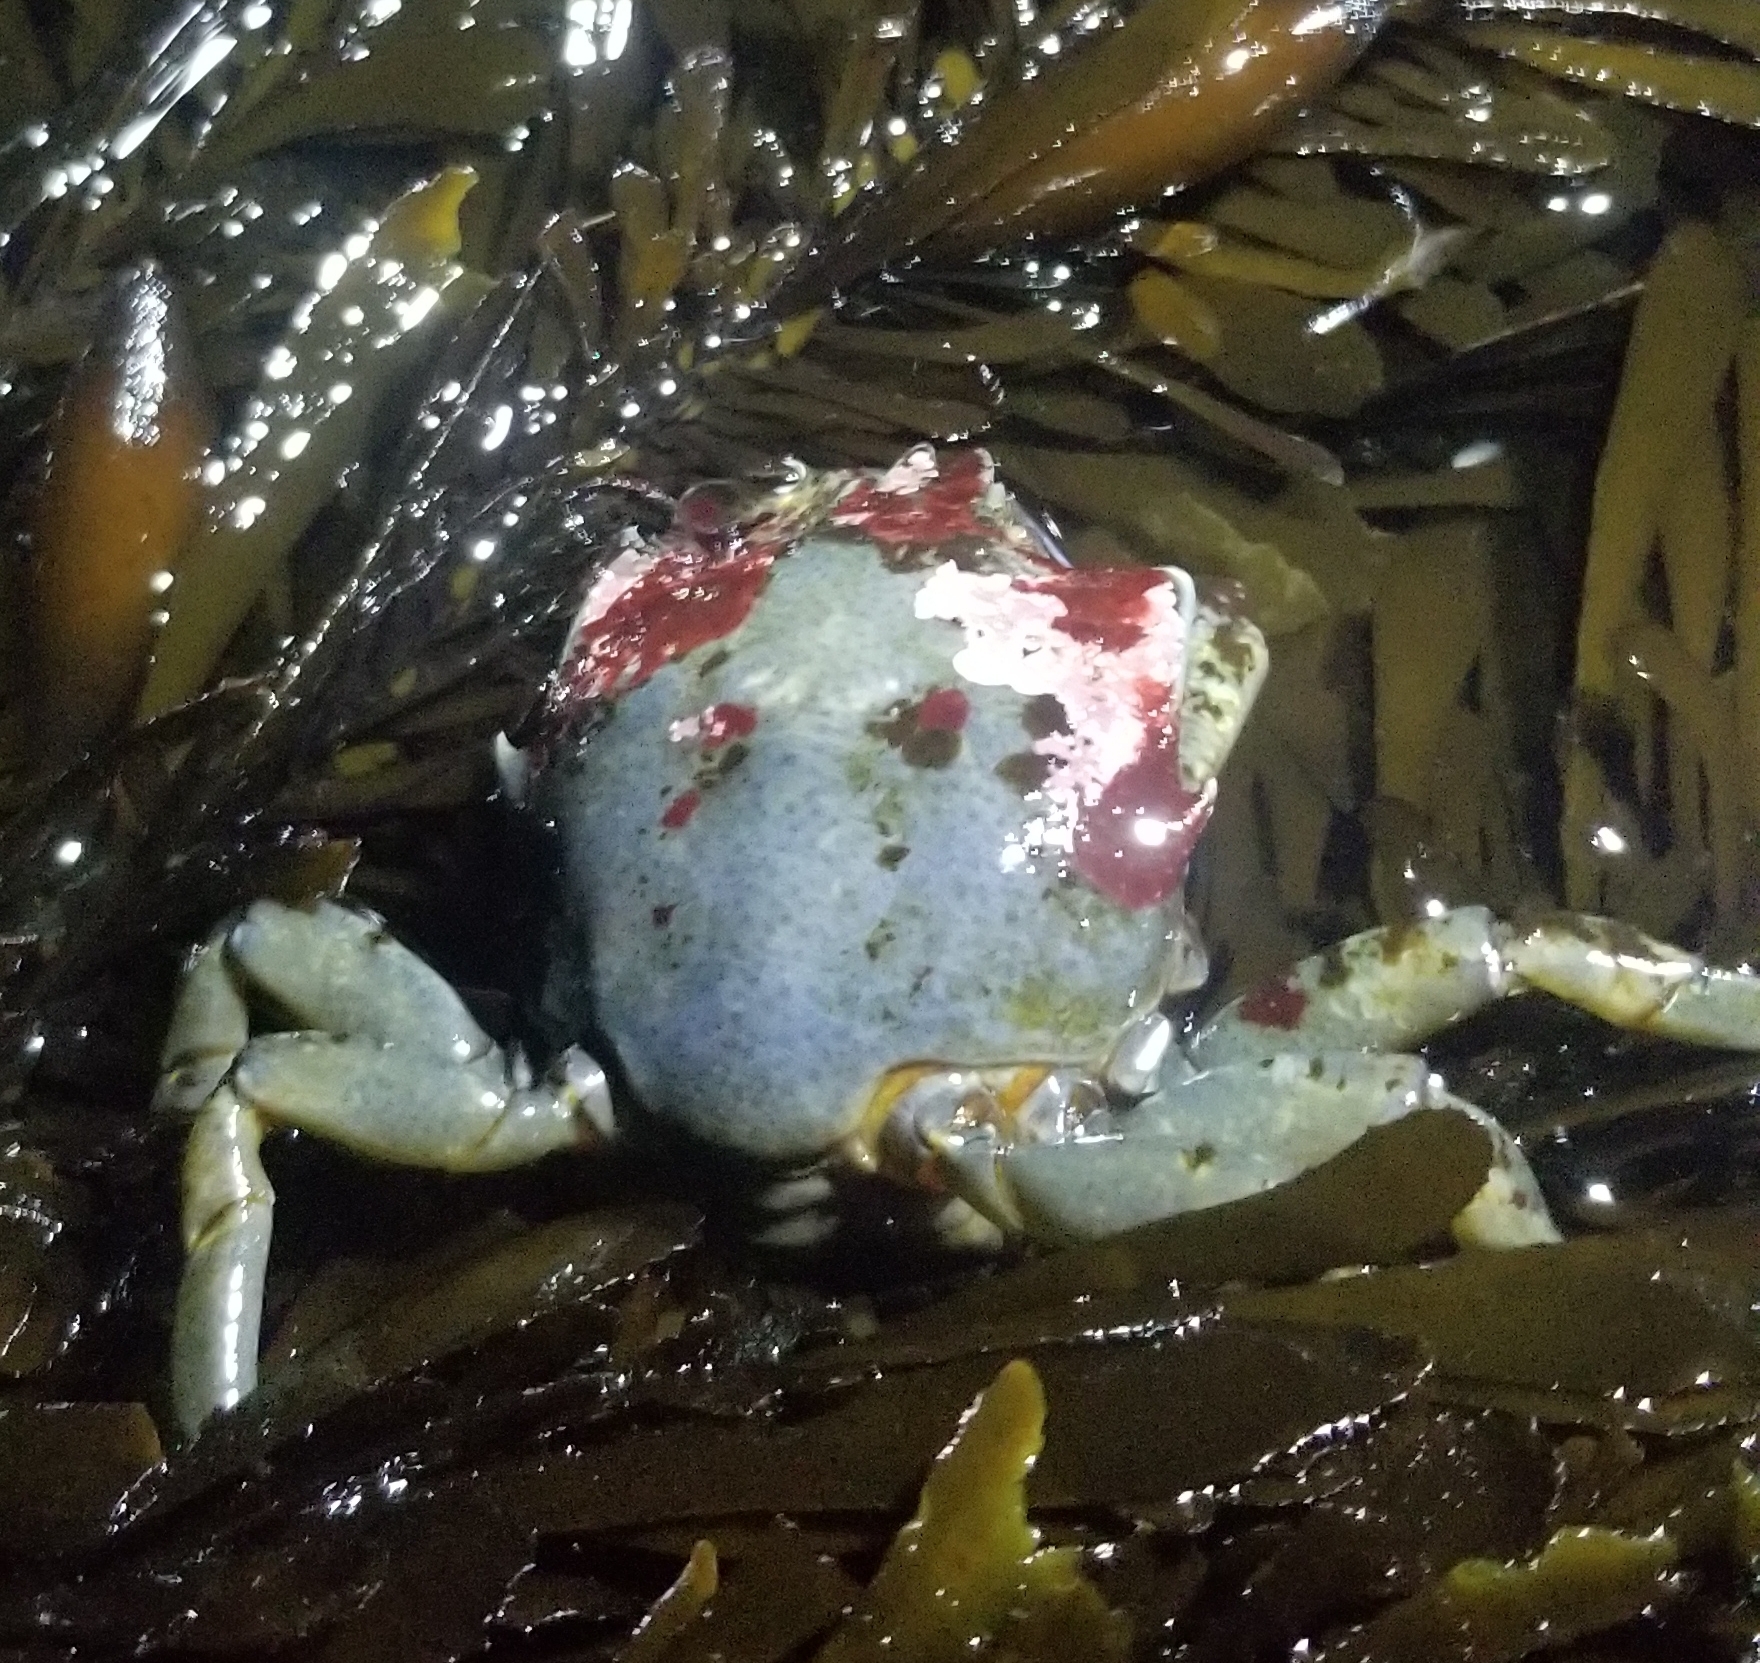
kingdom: Animalia
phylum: Arthropoda
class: Malacostraca
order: Decapoda
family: Epialtidae
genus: Pugettia
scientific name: Pugettia producta
